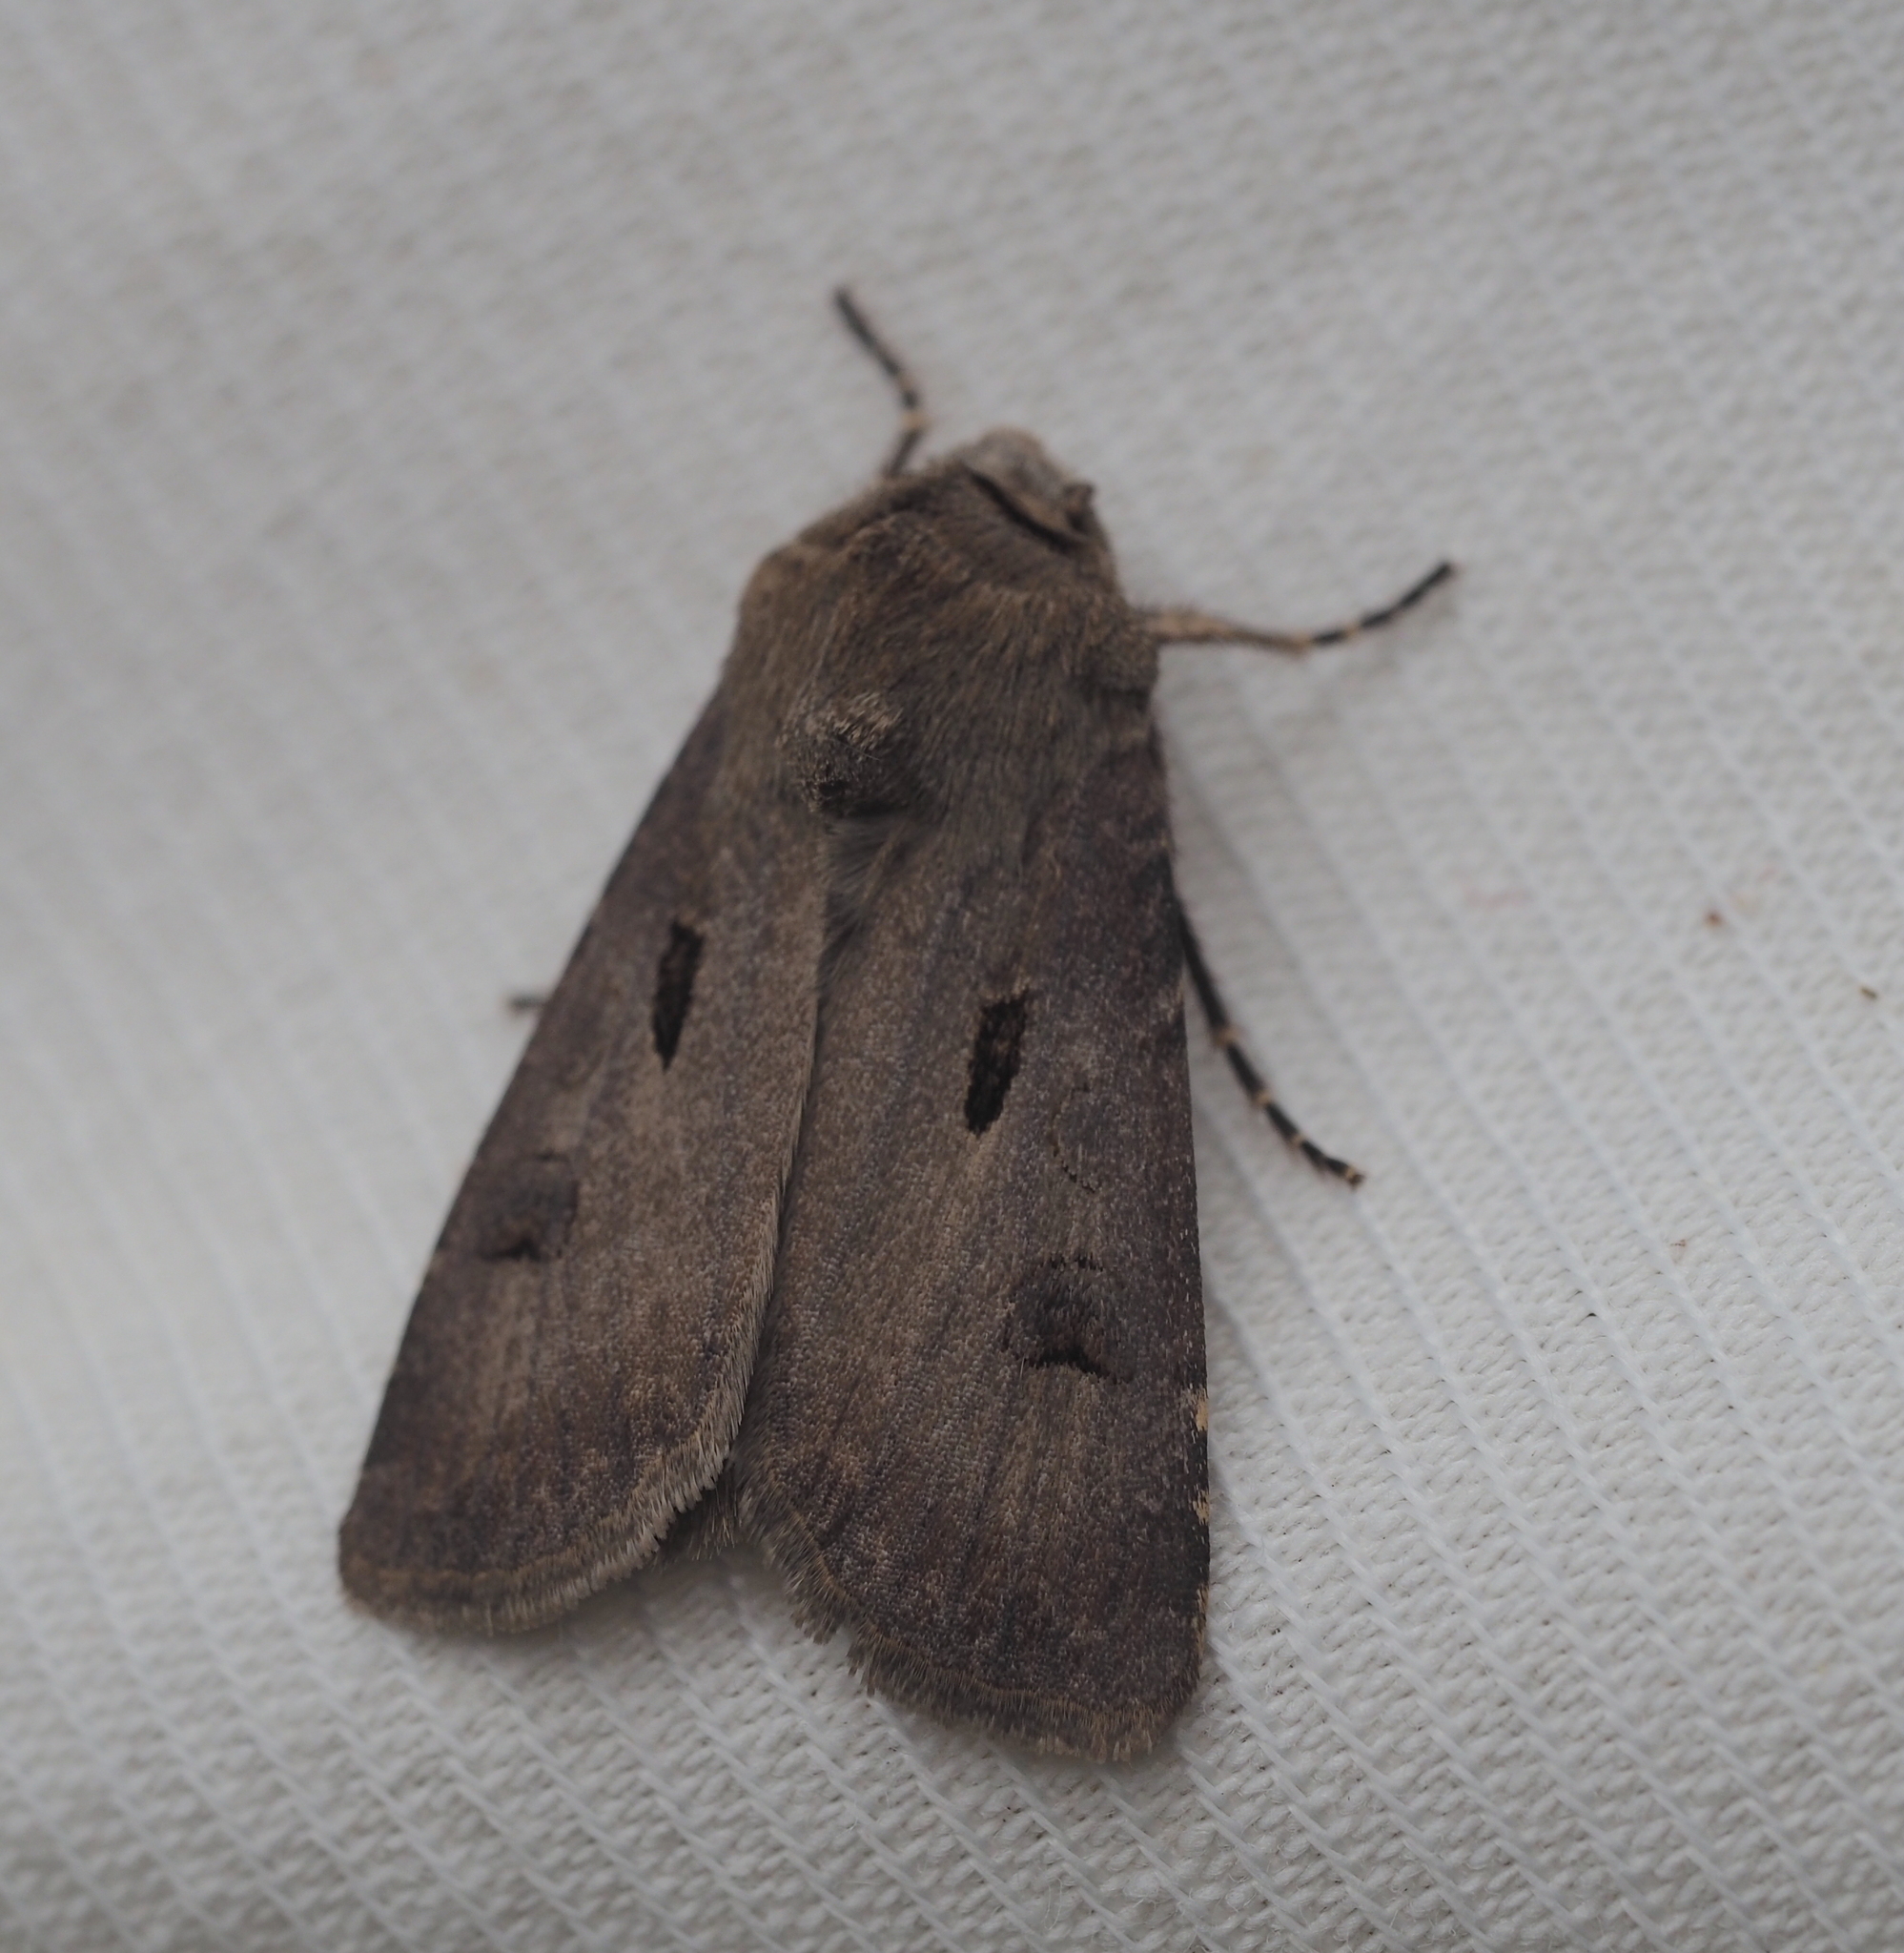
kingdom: Animalia
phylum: Arthropoda
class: Insecta
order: Lepidoptera
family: Noctuidae
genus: Agrotis
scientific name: Agrotis exclamationis
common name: Heart and dart
